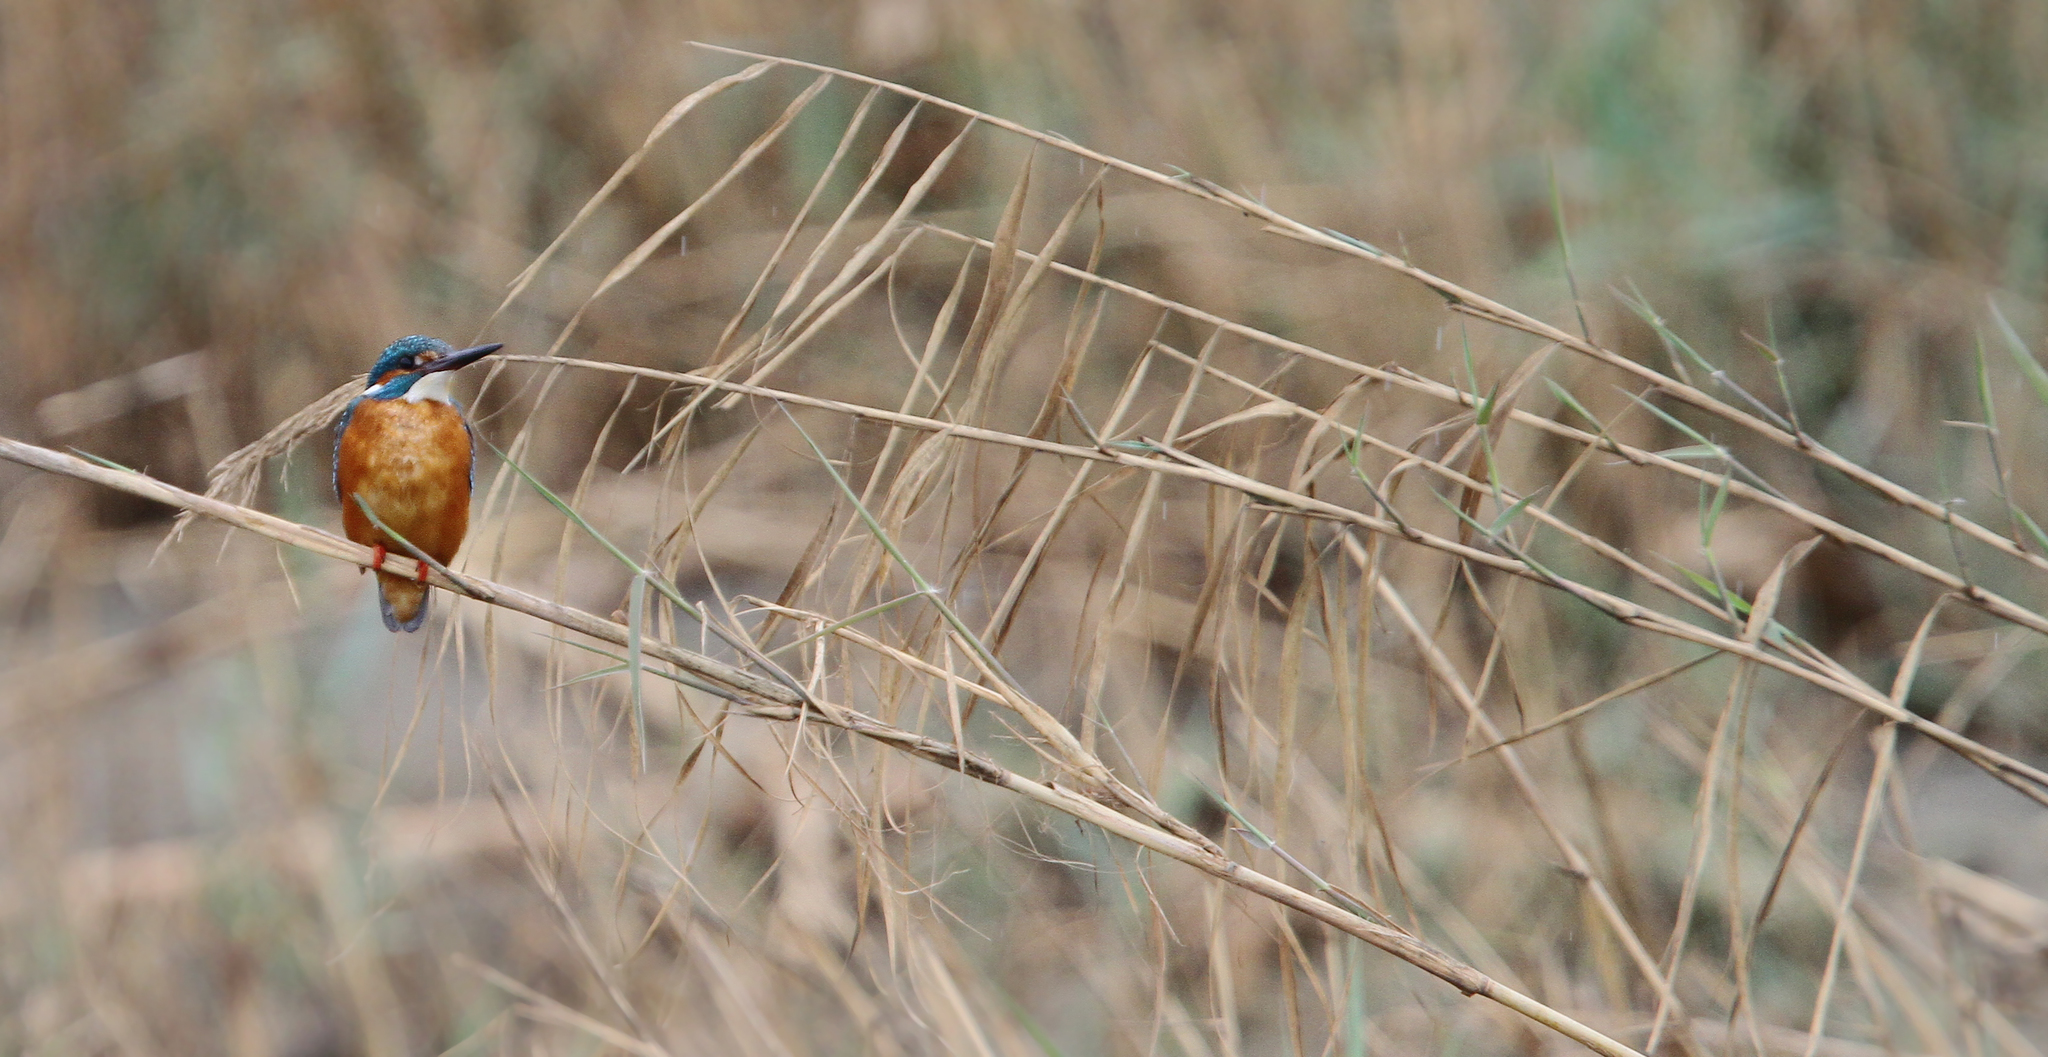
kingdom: Animalia
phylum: Chordata
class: Aves
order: Coraciiformes
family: Alcedinidae
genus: Alcedo
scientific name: Alcedo atthis
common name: Common kingfisher
